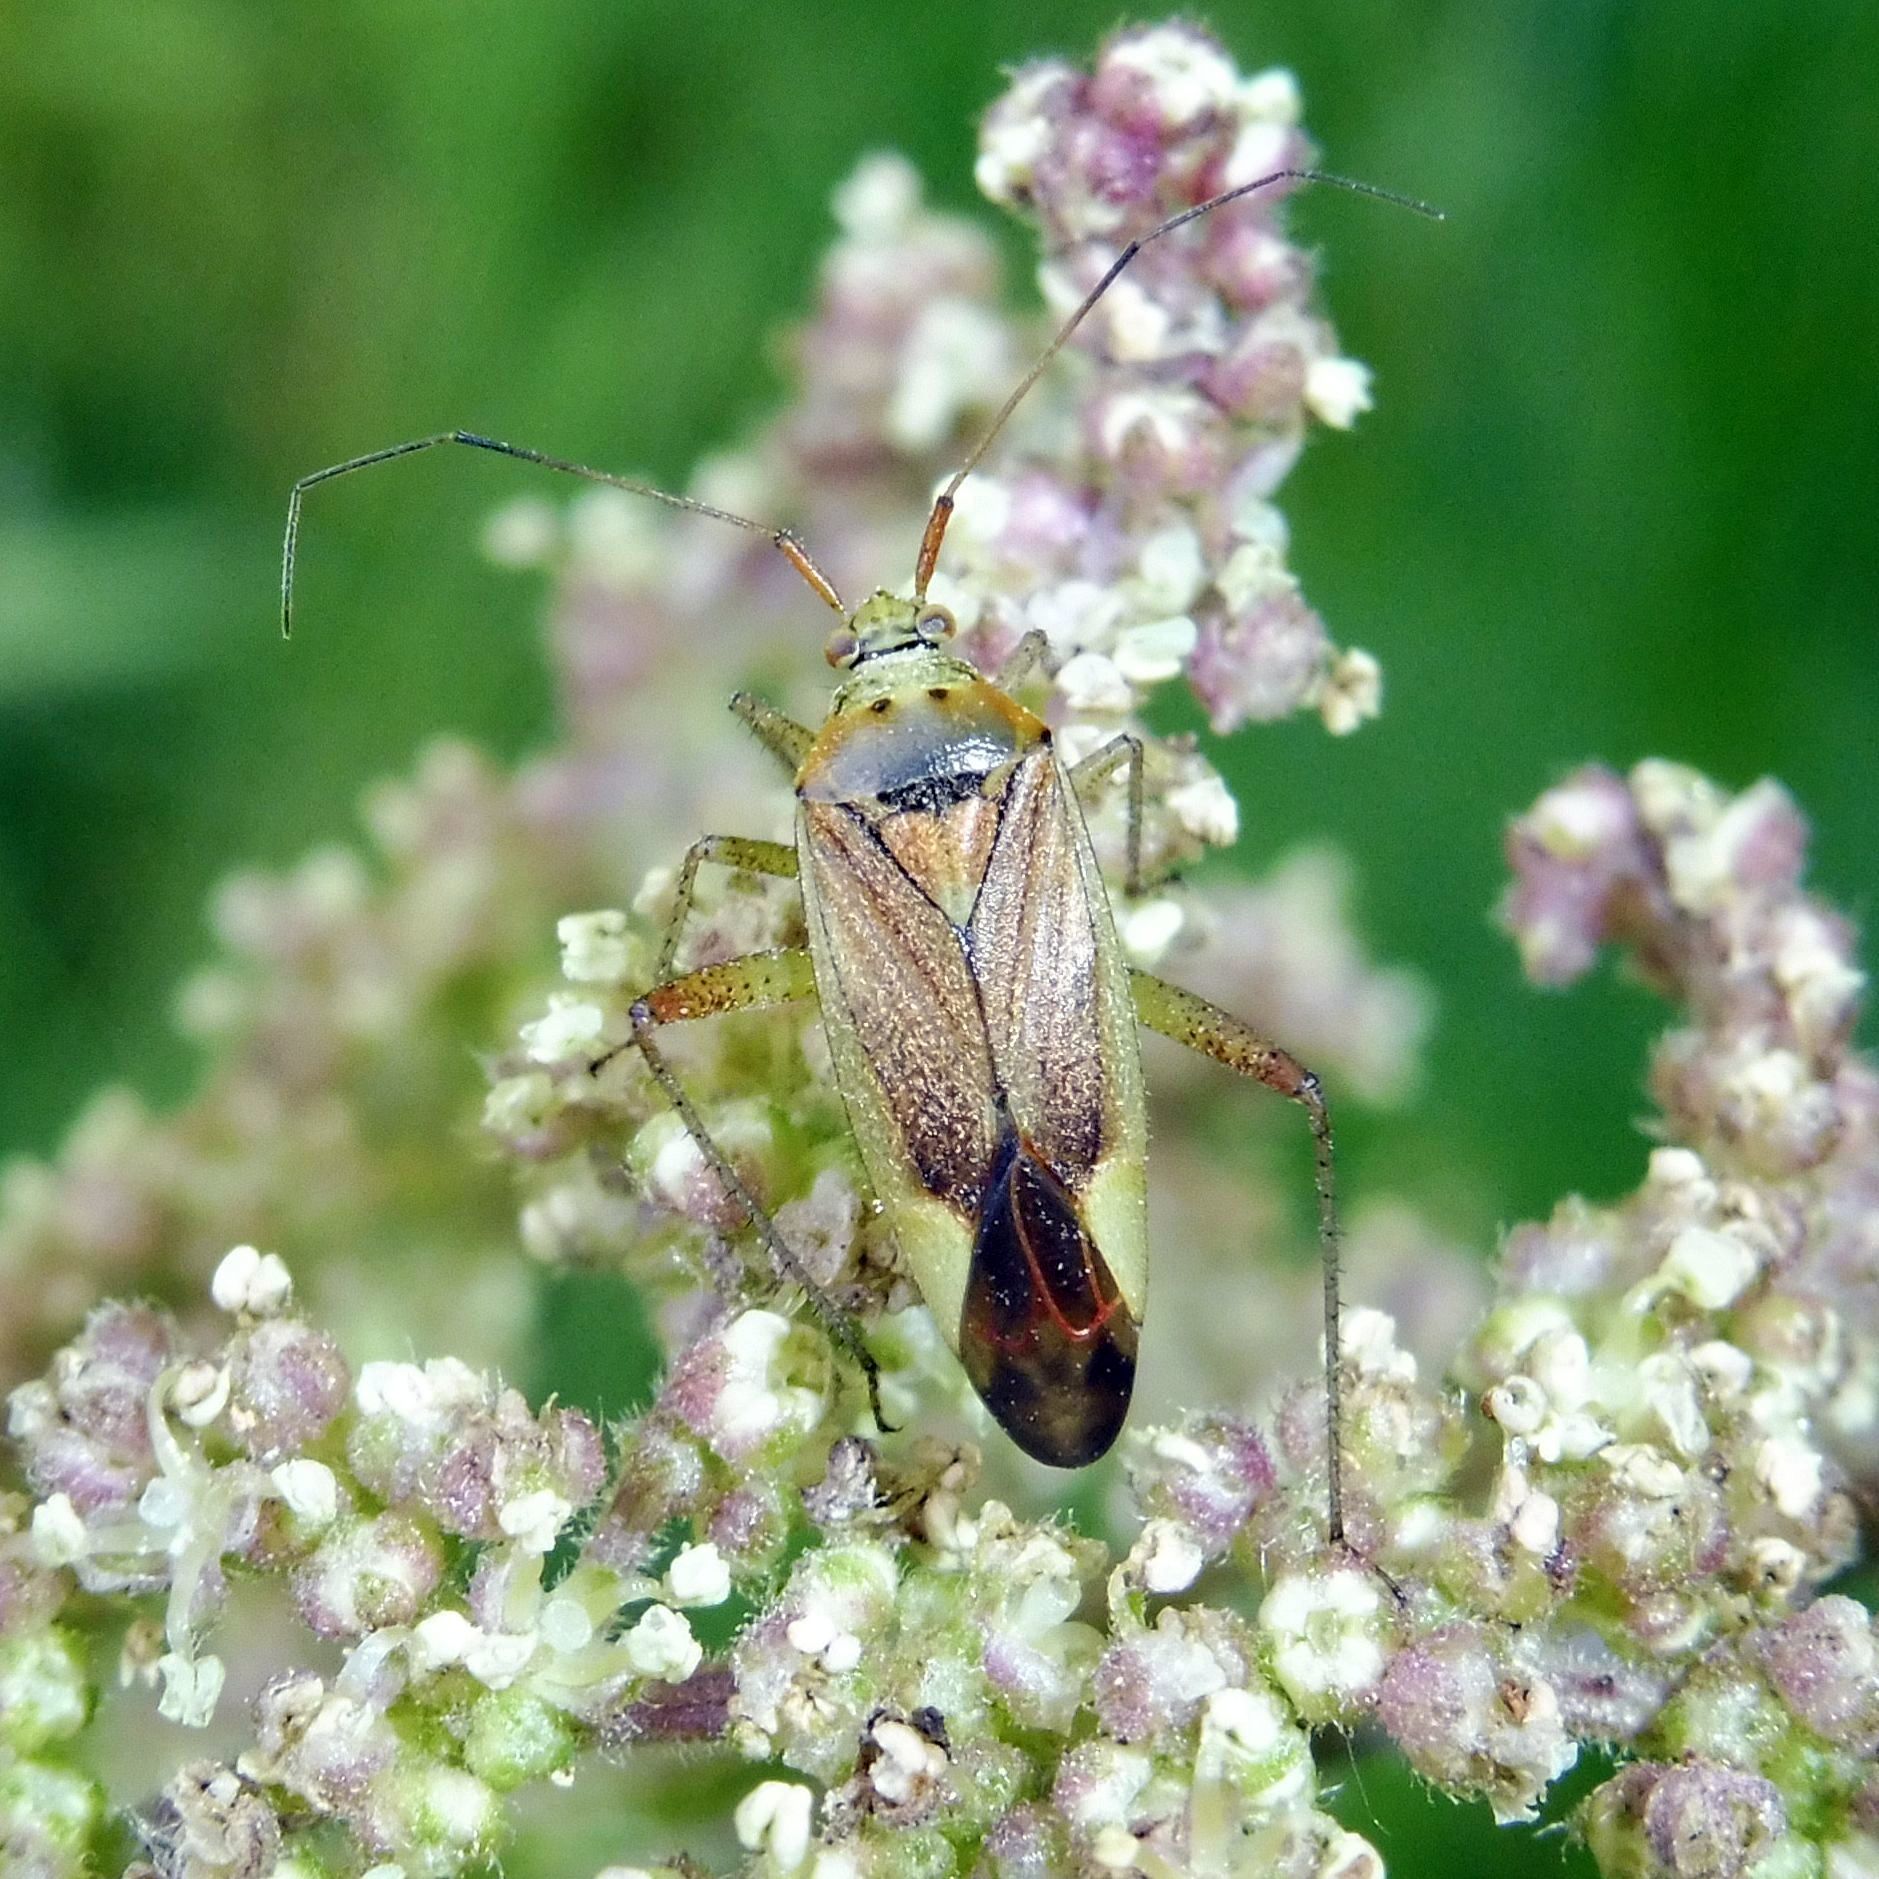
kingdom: Animalia
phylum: Arthropoda
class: Insecta
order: Hemiptera
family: Miridae
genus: Closterotomus
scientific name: Closterotomus trivialis
